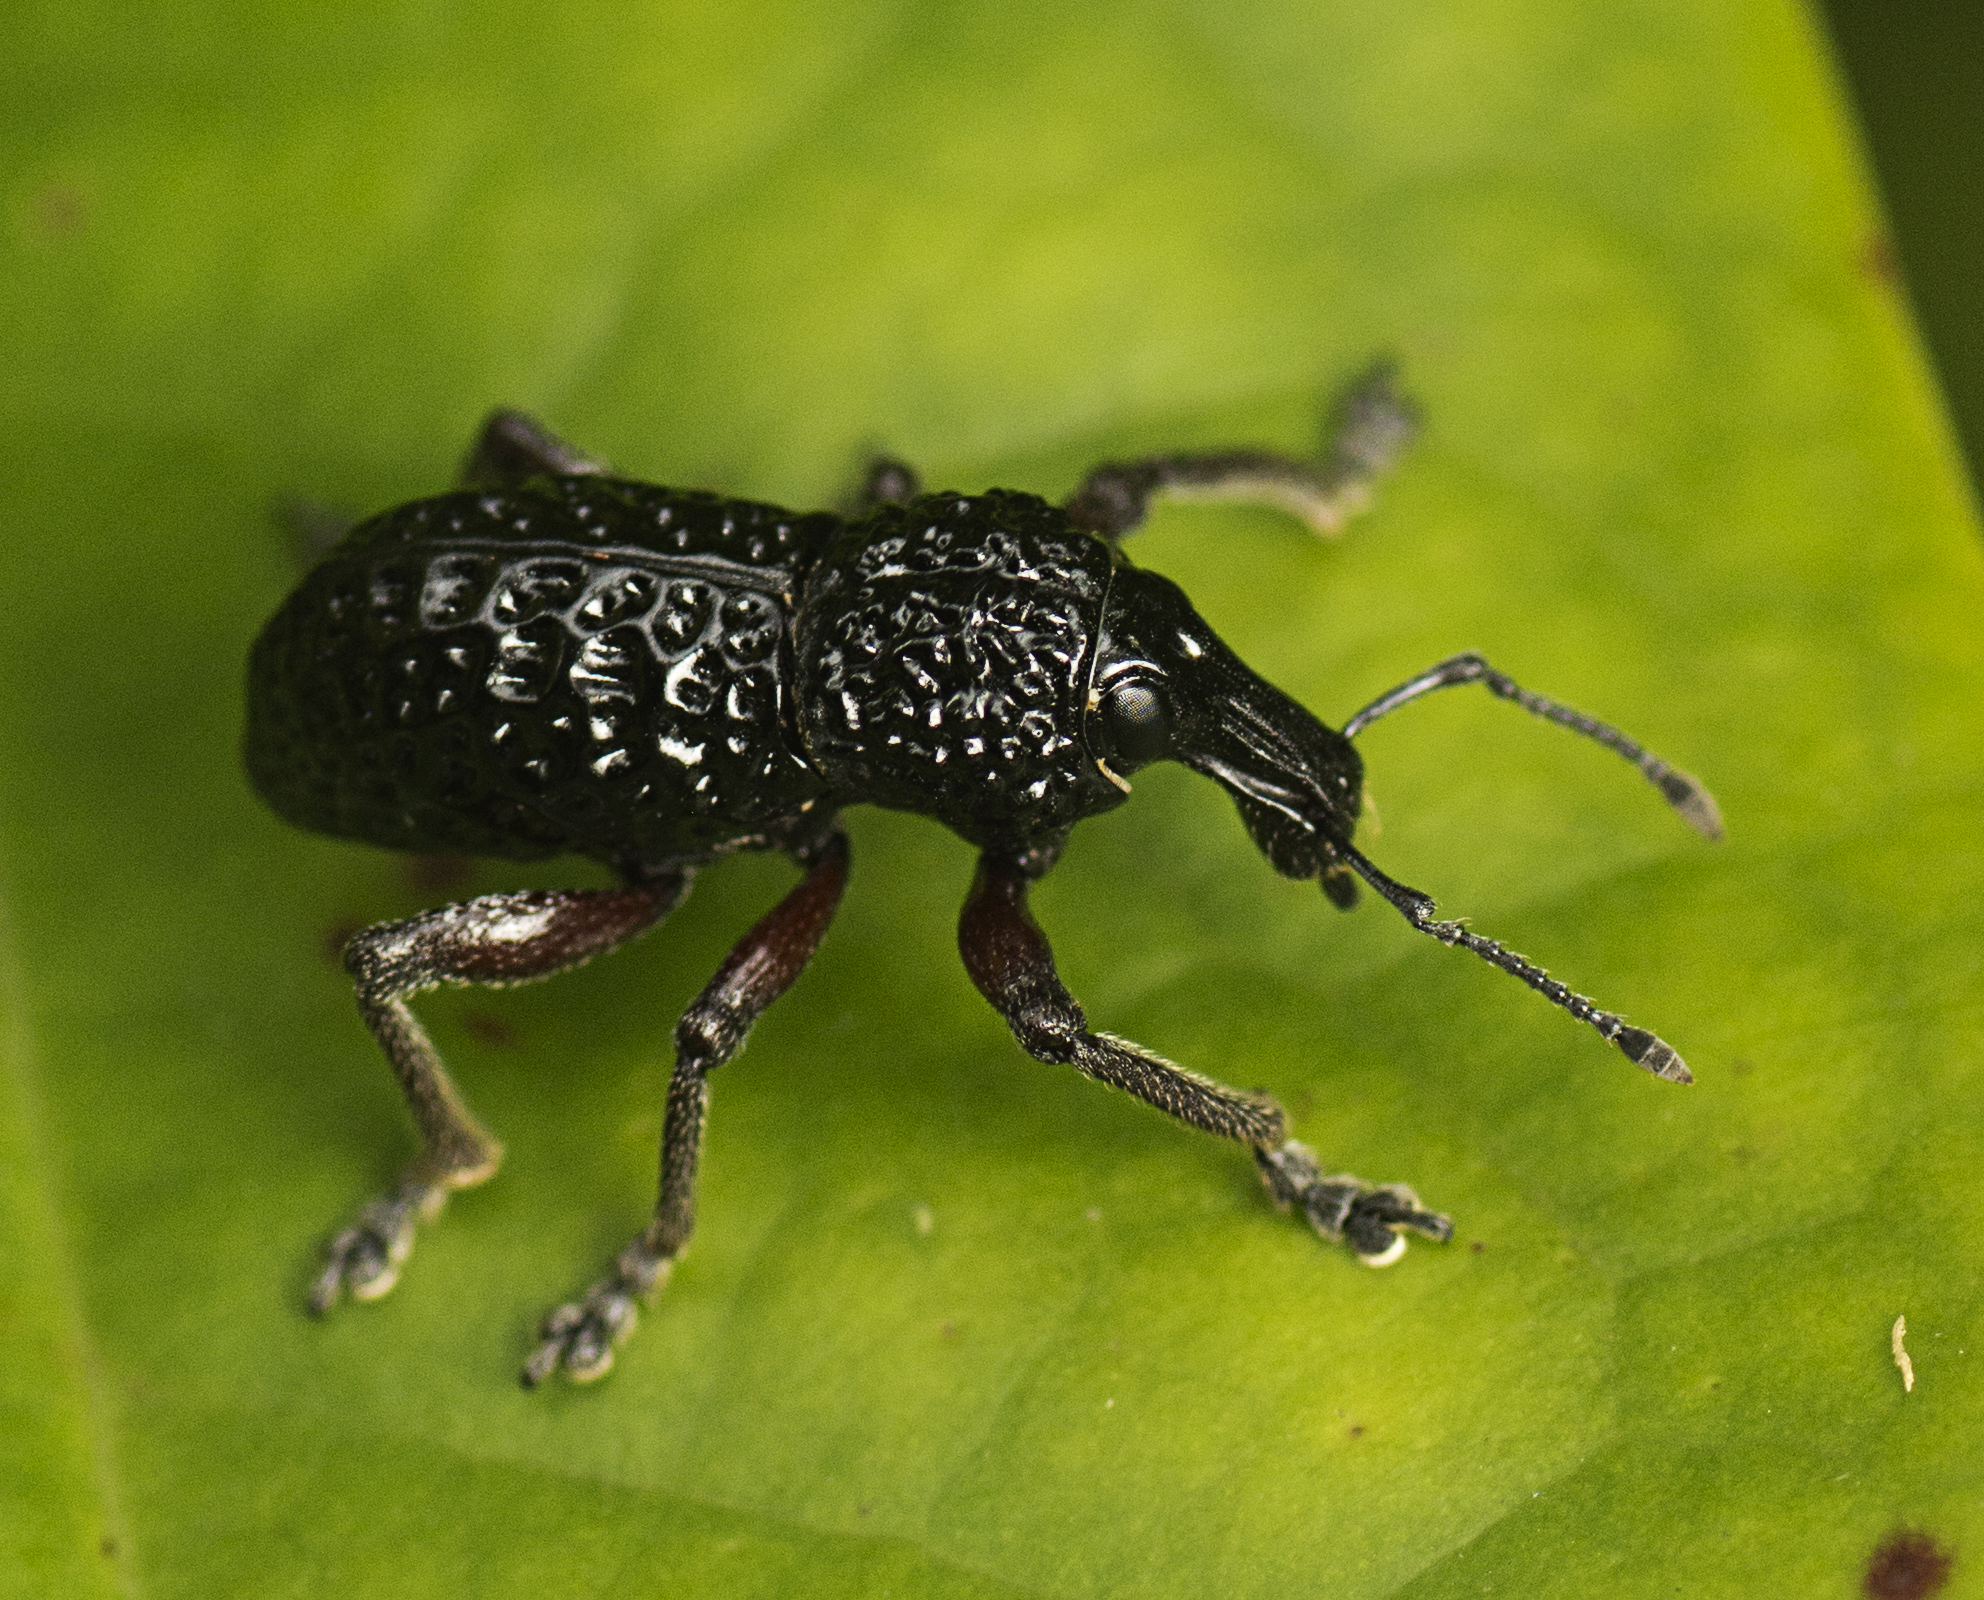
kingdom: Animalia
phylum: Arthropoda
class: Insecta
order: Coleoptera
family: Curculionidae
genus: Zymaus
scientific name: Zymaus angustus
